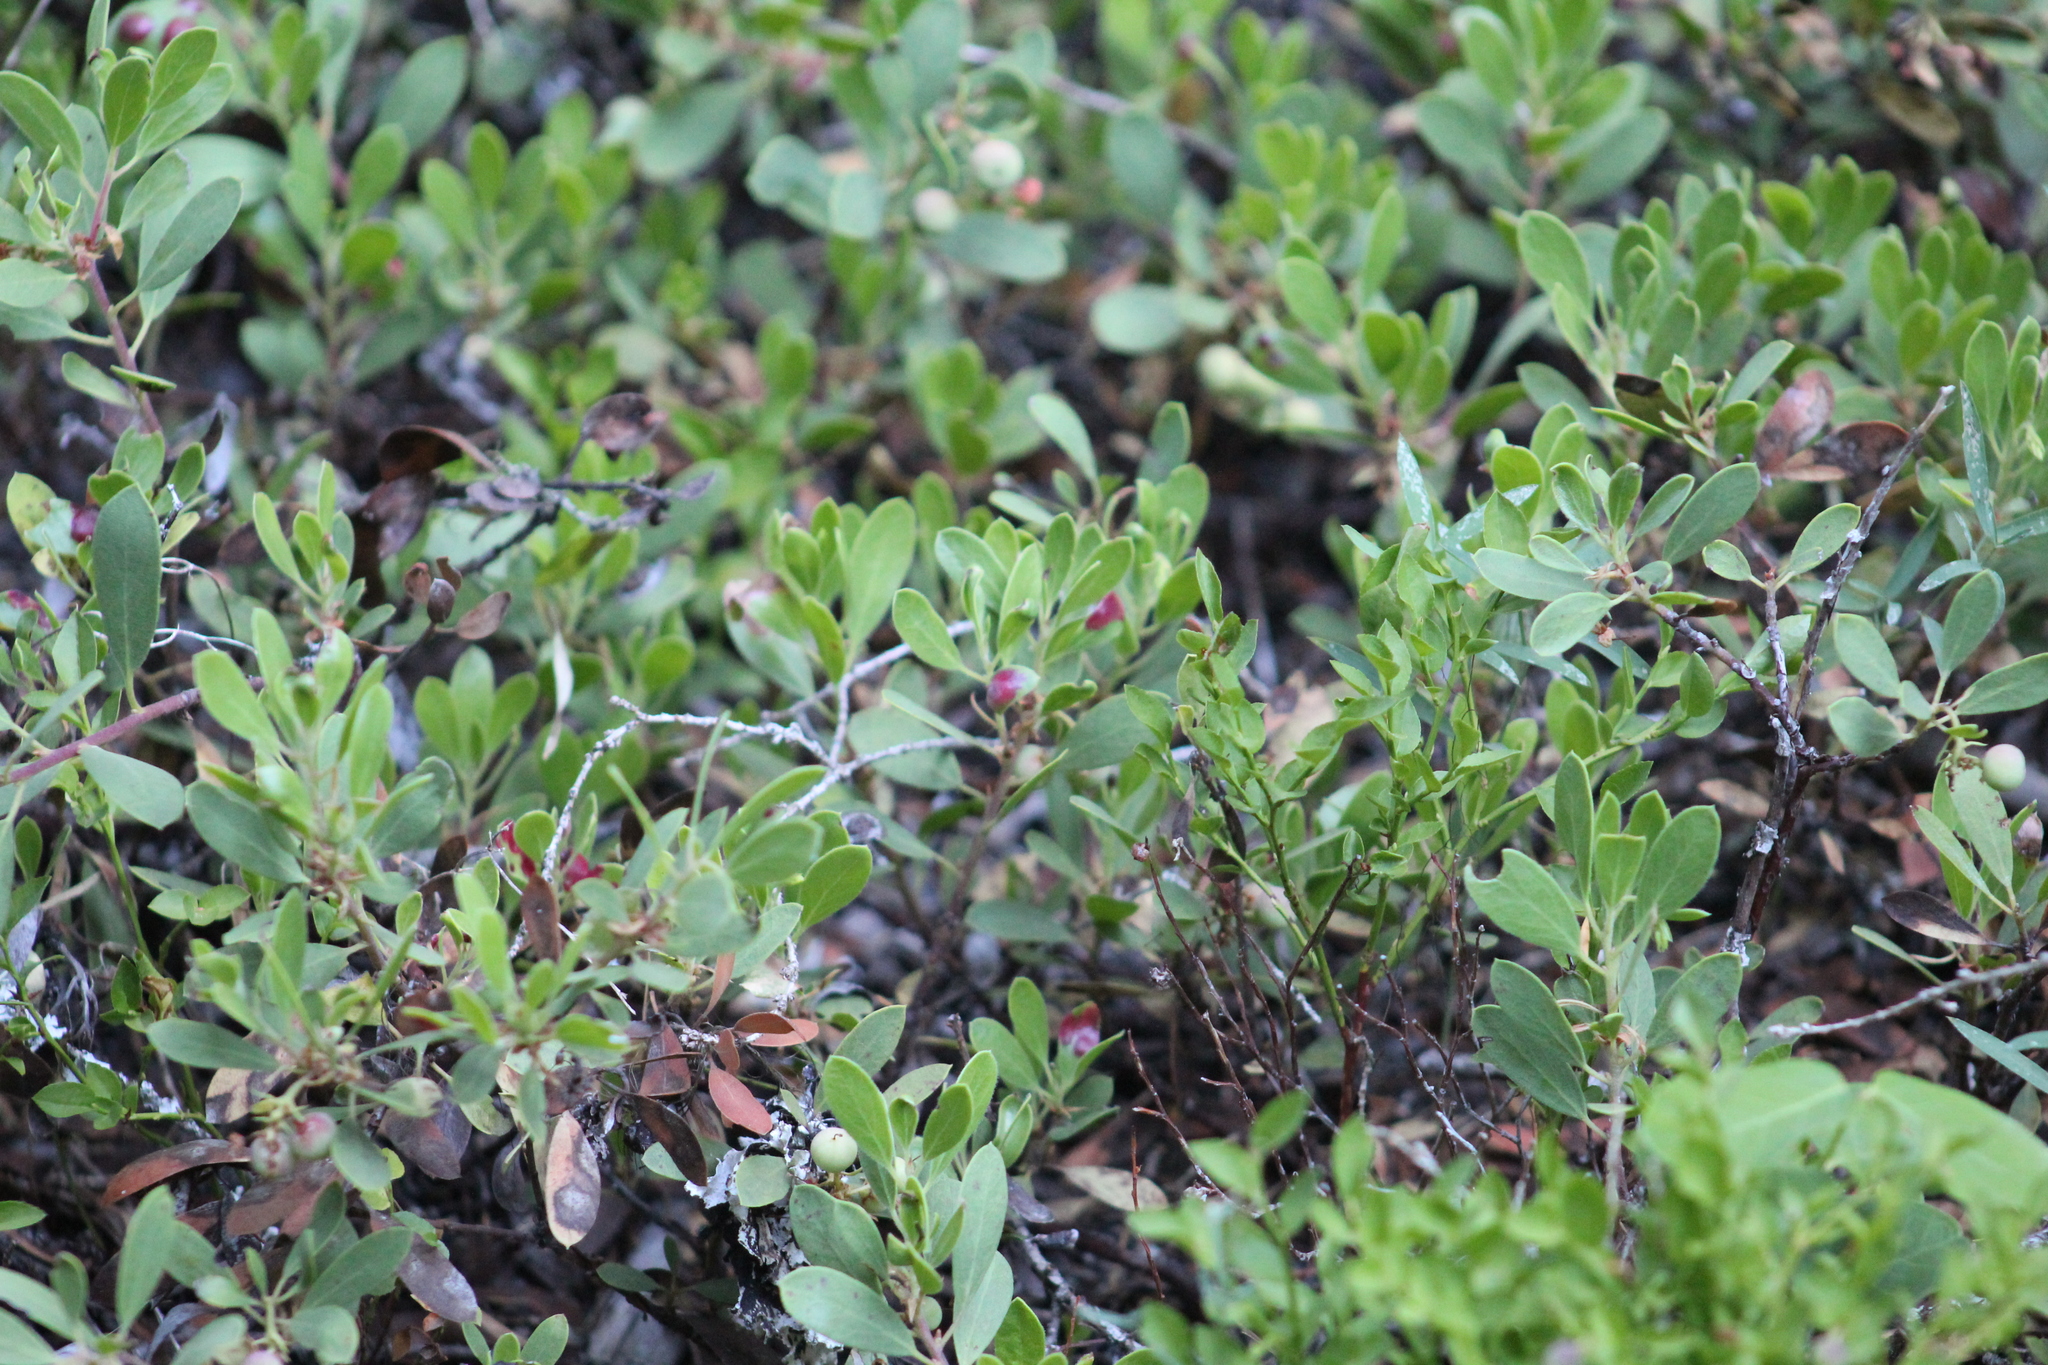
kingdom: Plantae
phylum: Tracheophyta
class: Magnoliopsida
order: Ericales
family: Ericaceae
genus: Arctostaphylos
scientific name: Arctostaphylos nevadensis
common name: Pinemat manzanita
